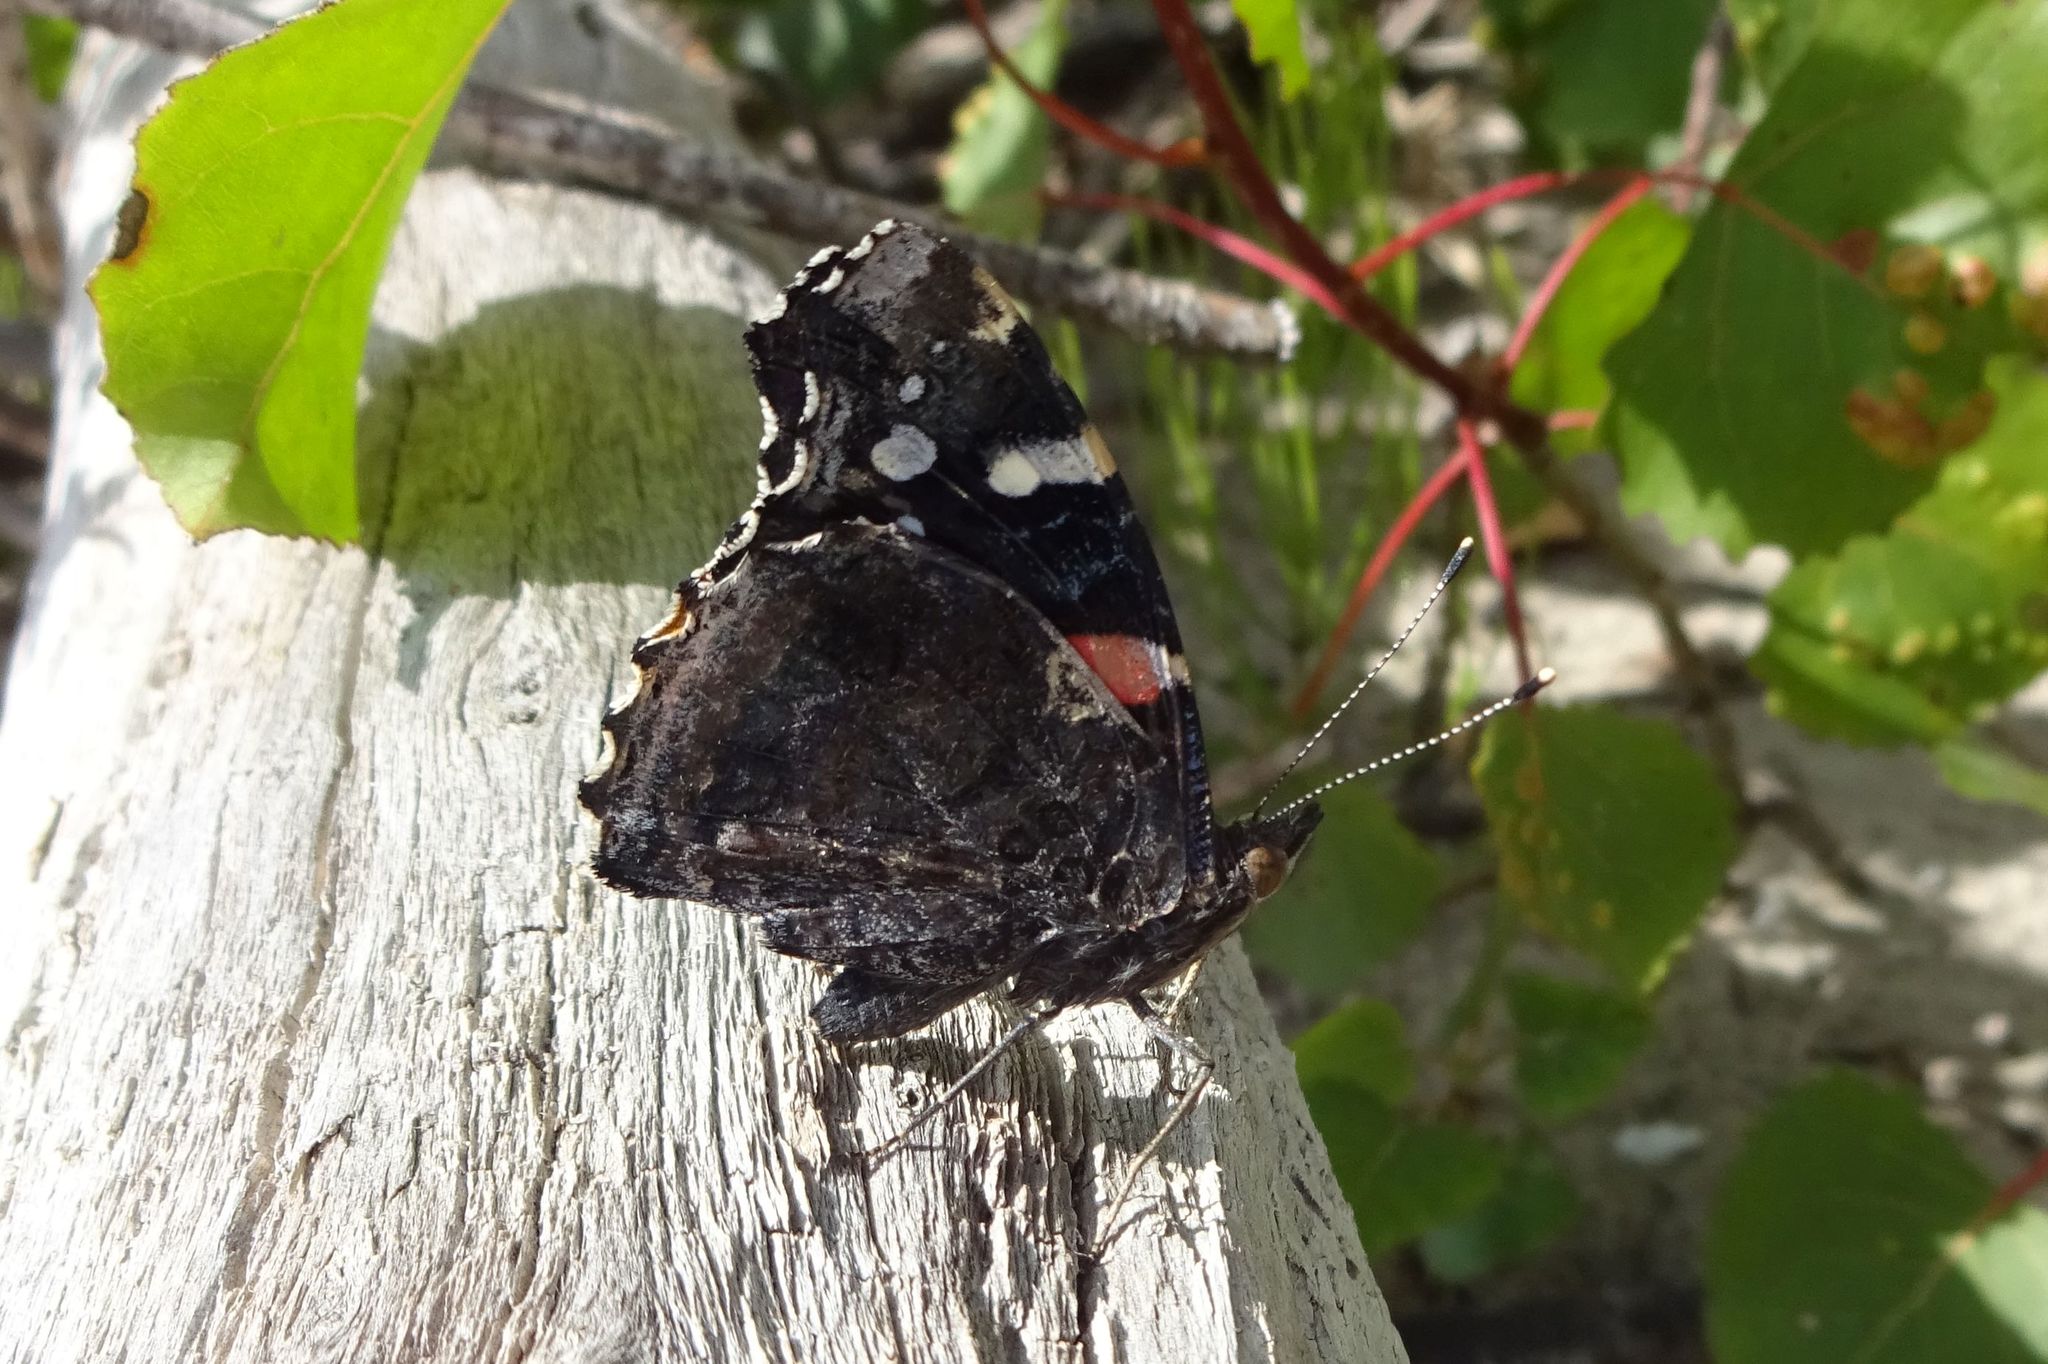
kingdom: Animalia
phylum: Arthropoda
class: Insecta
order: Lepidoptera
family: Nymphalidae
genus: Vanessa
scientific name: Vanessa atalanta
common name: Red admiral
